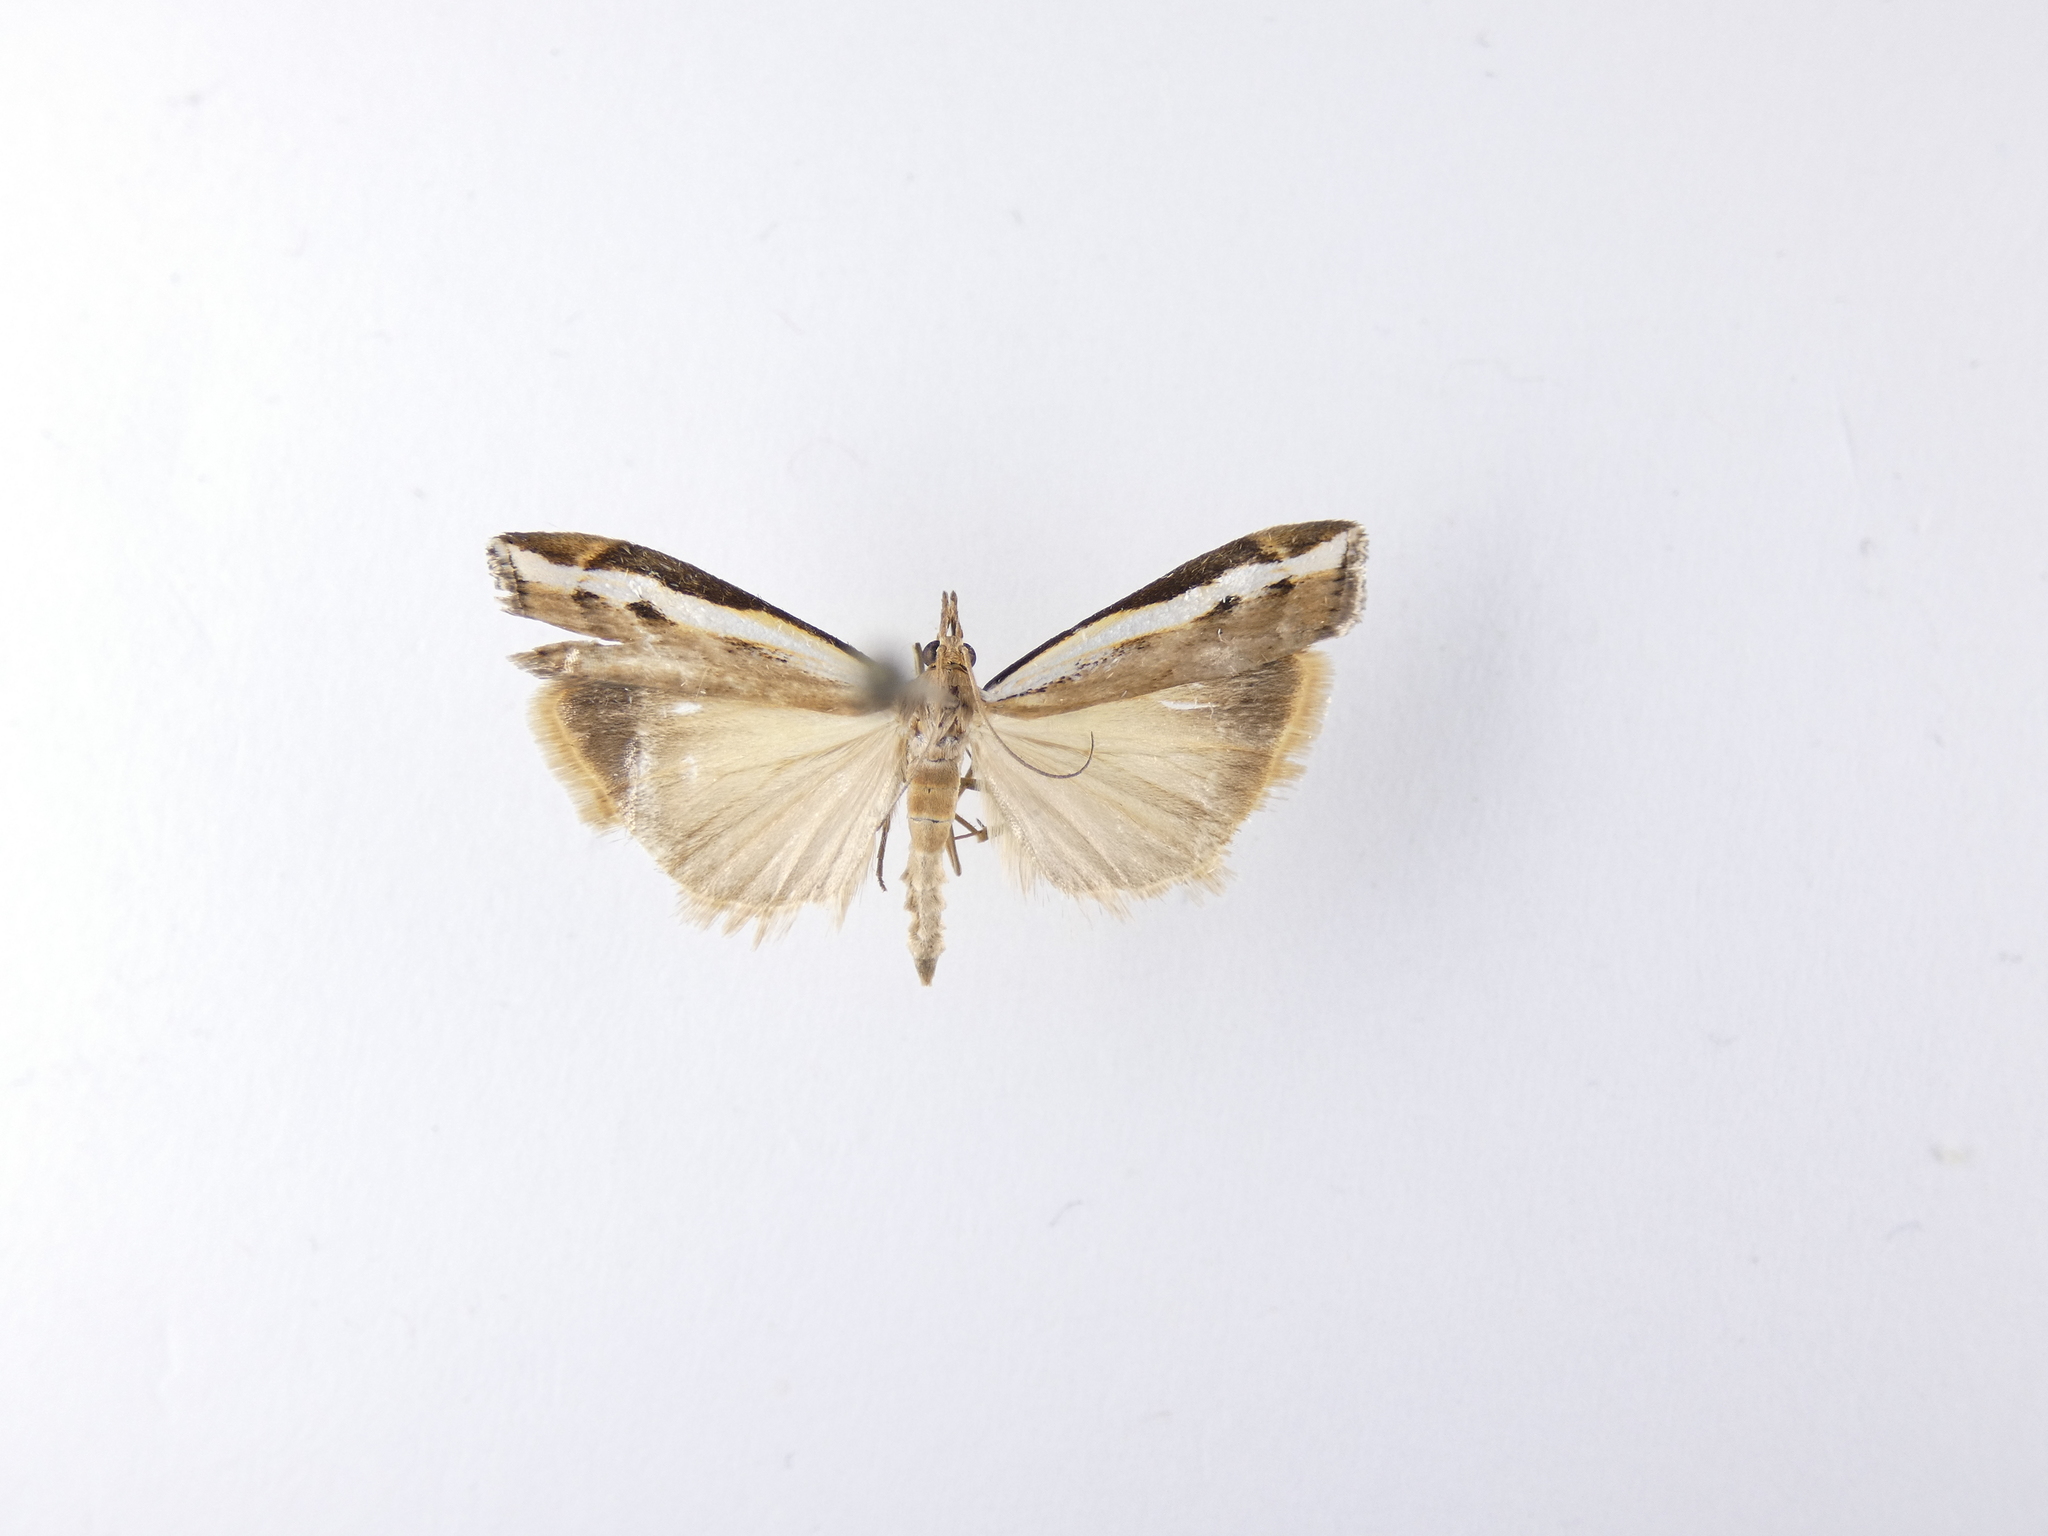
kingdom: Animalia
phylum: Arthropoda
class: Insecta
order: Lepidoptera
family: Crambidae
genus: Orocrambus
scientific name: Orocrambus flexuosellus
